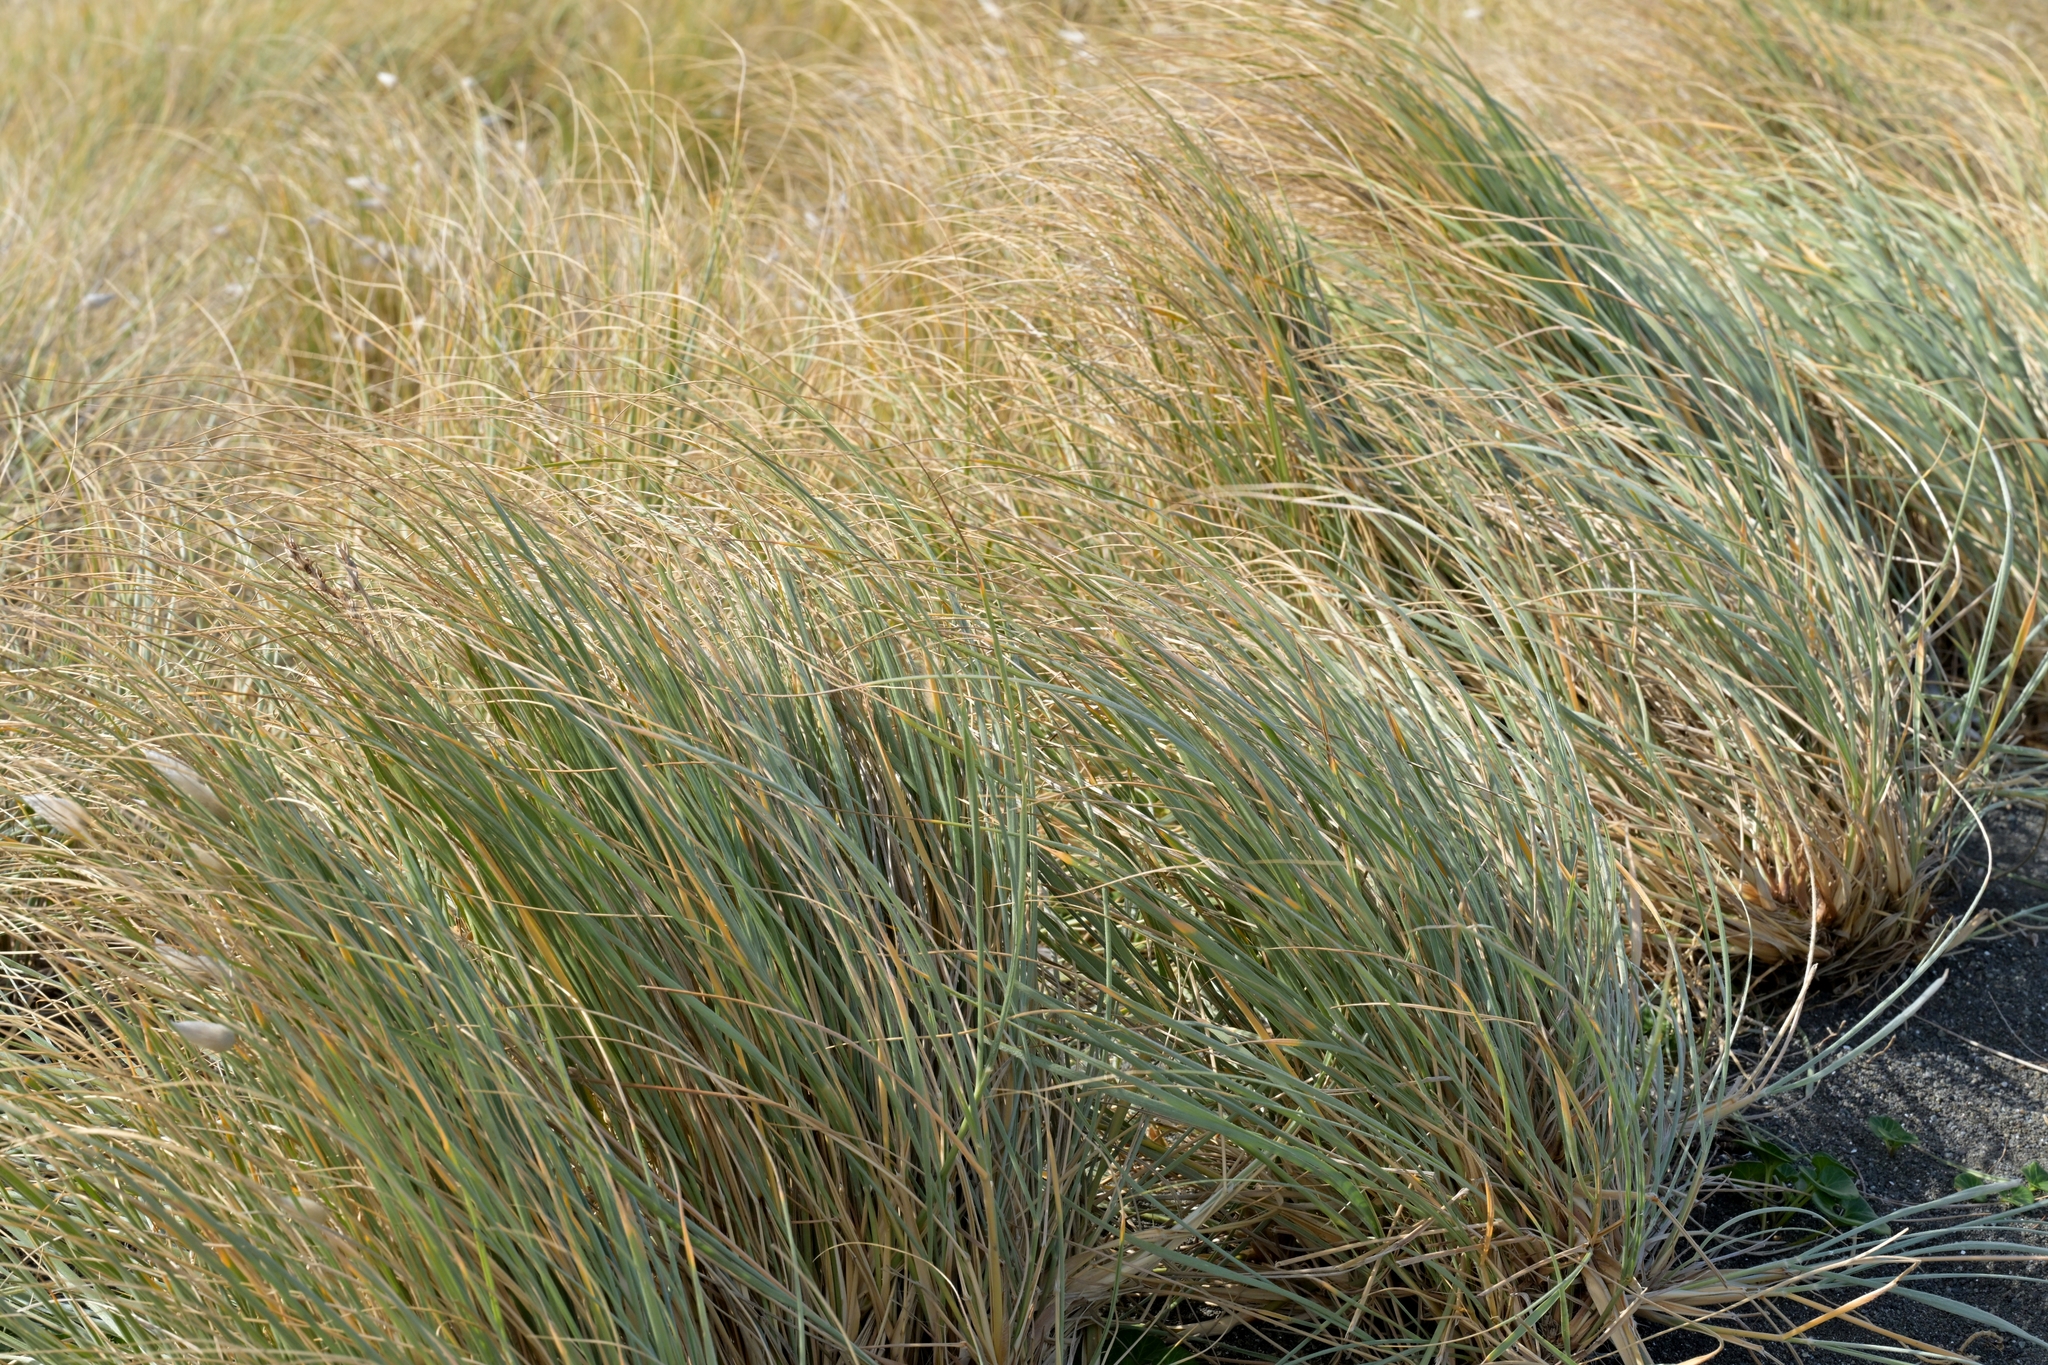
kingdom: Plantae
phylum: Tracheophyta
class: Liliopsida
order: Poales
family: Poaceae
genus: Spinifex
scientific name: Spinifex sericeus
